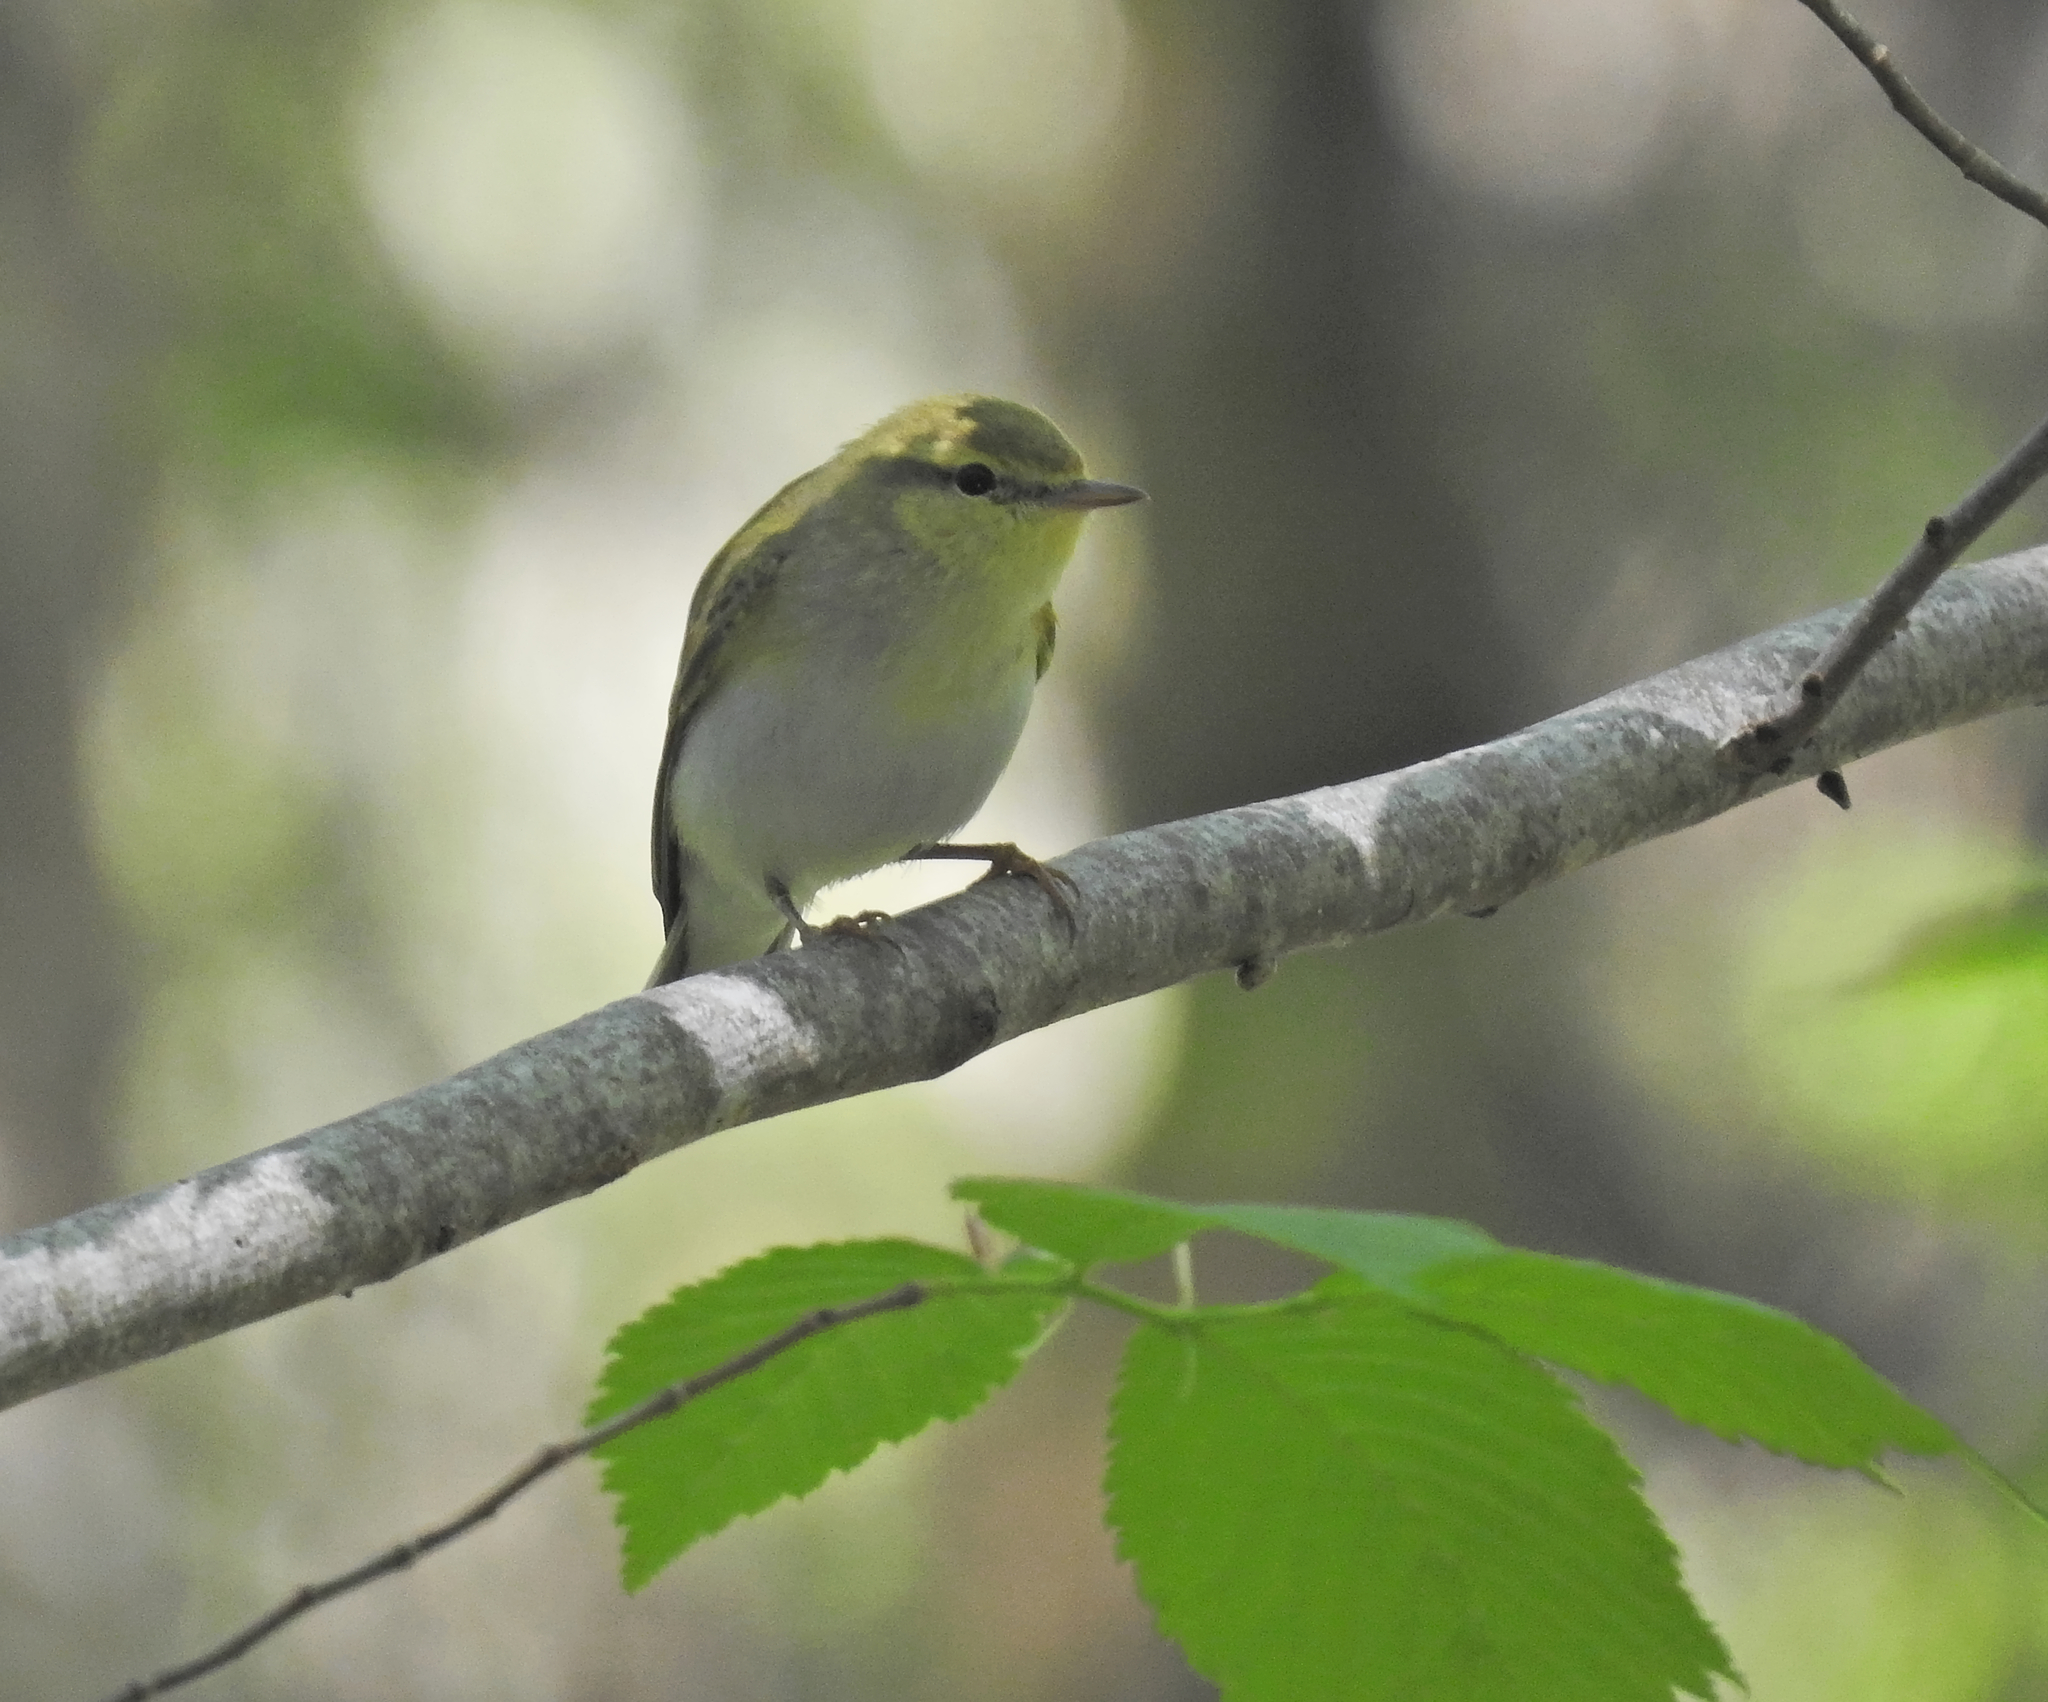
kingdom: Animalia
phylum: Chordata
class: Aves
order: Passeriformes
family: Phylloscopidae
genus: Phylloscopus
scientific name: Phylloscopus sibillatrix
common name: Wood warbler
